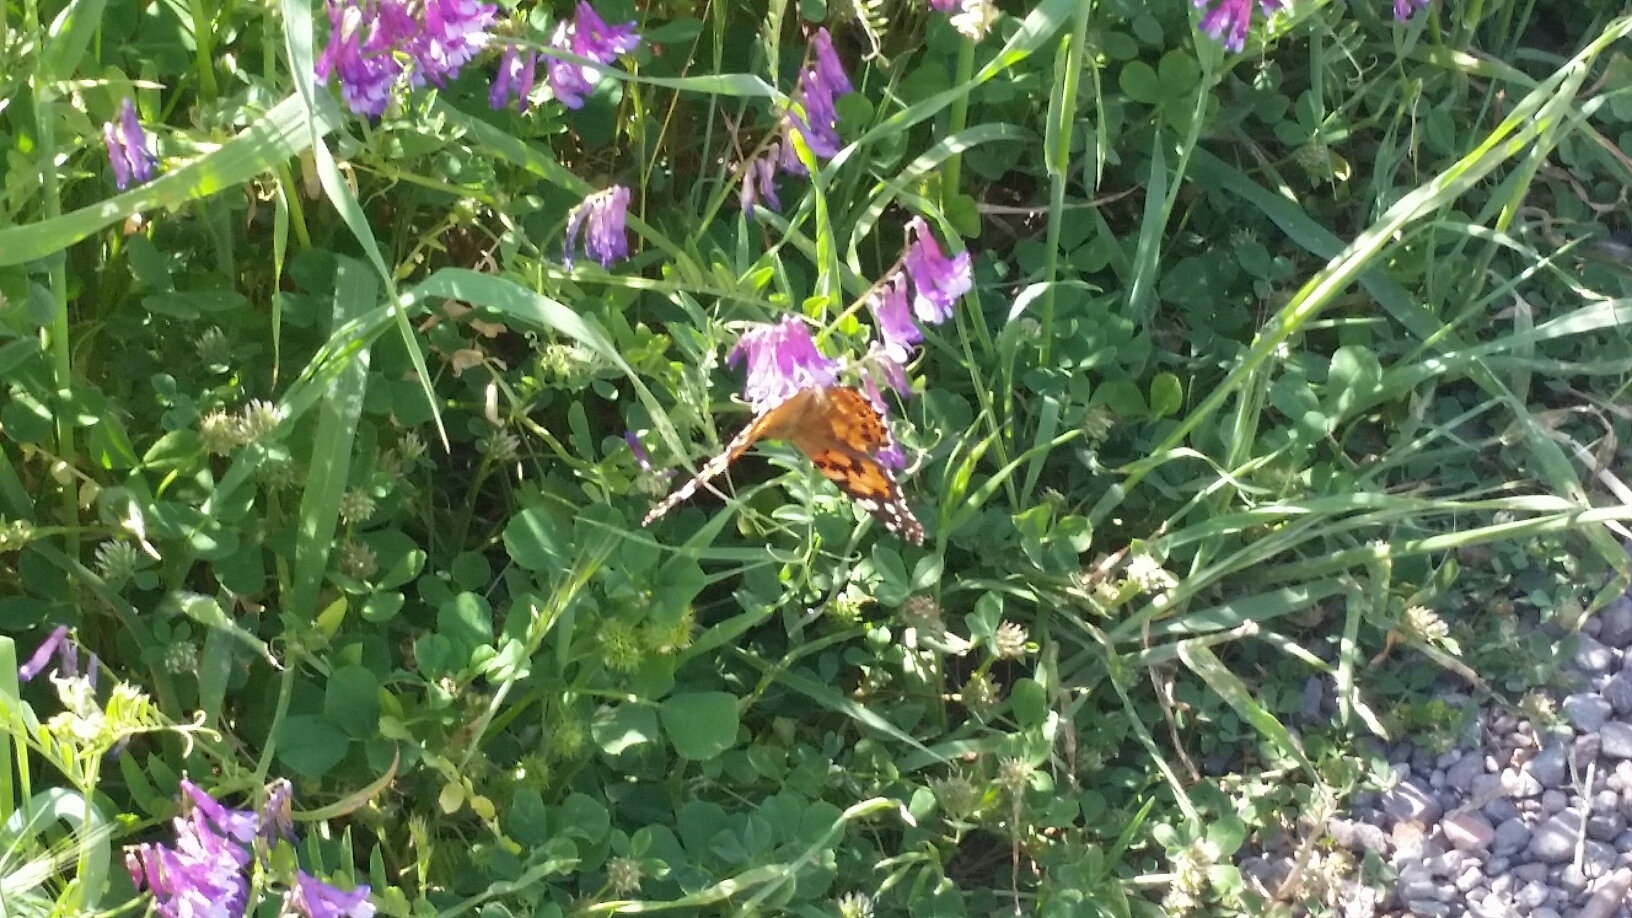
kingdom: Animalia
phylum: Arthropoda
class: Insecta
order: Lepidoptera
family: Nymphalidae
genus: Vanessa
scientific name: Vanessa cardui
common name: Painted lady
